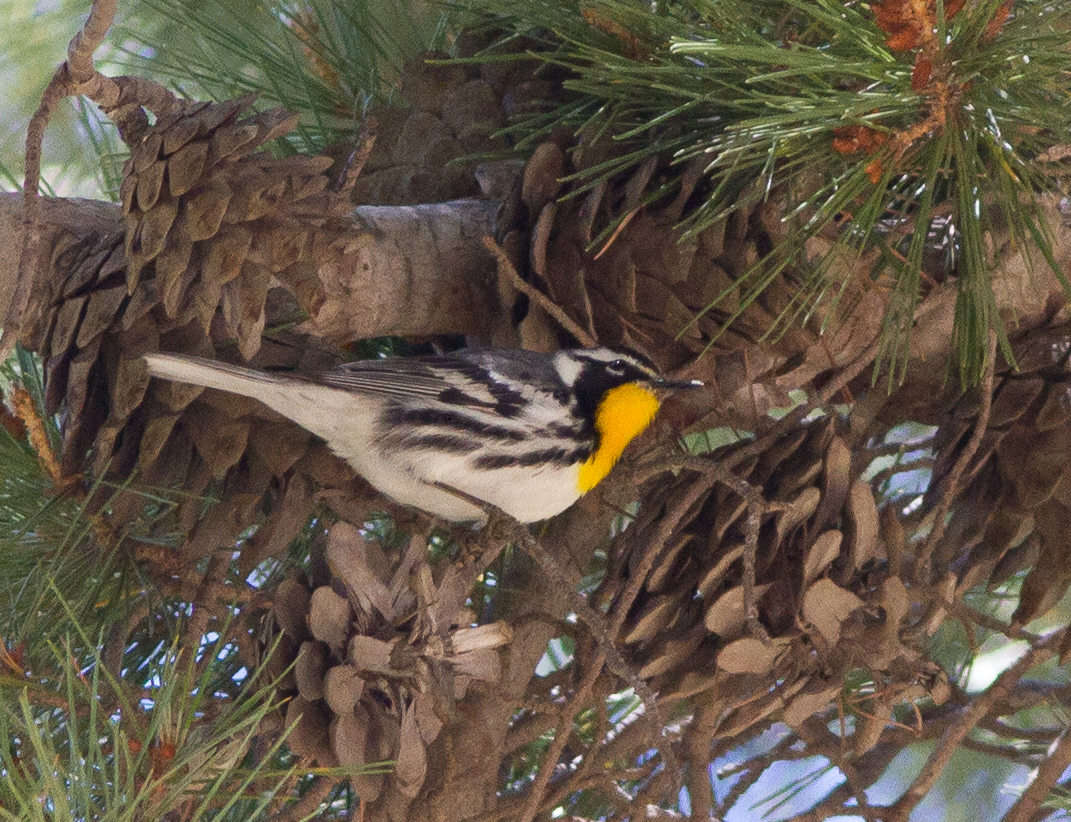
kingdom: Animalia
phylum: Chordata
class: Aves
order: Passeriformes
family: Parulidae
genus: Setophaga
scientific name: Setophaga dominica
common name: Yellow-throated warbler
